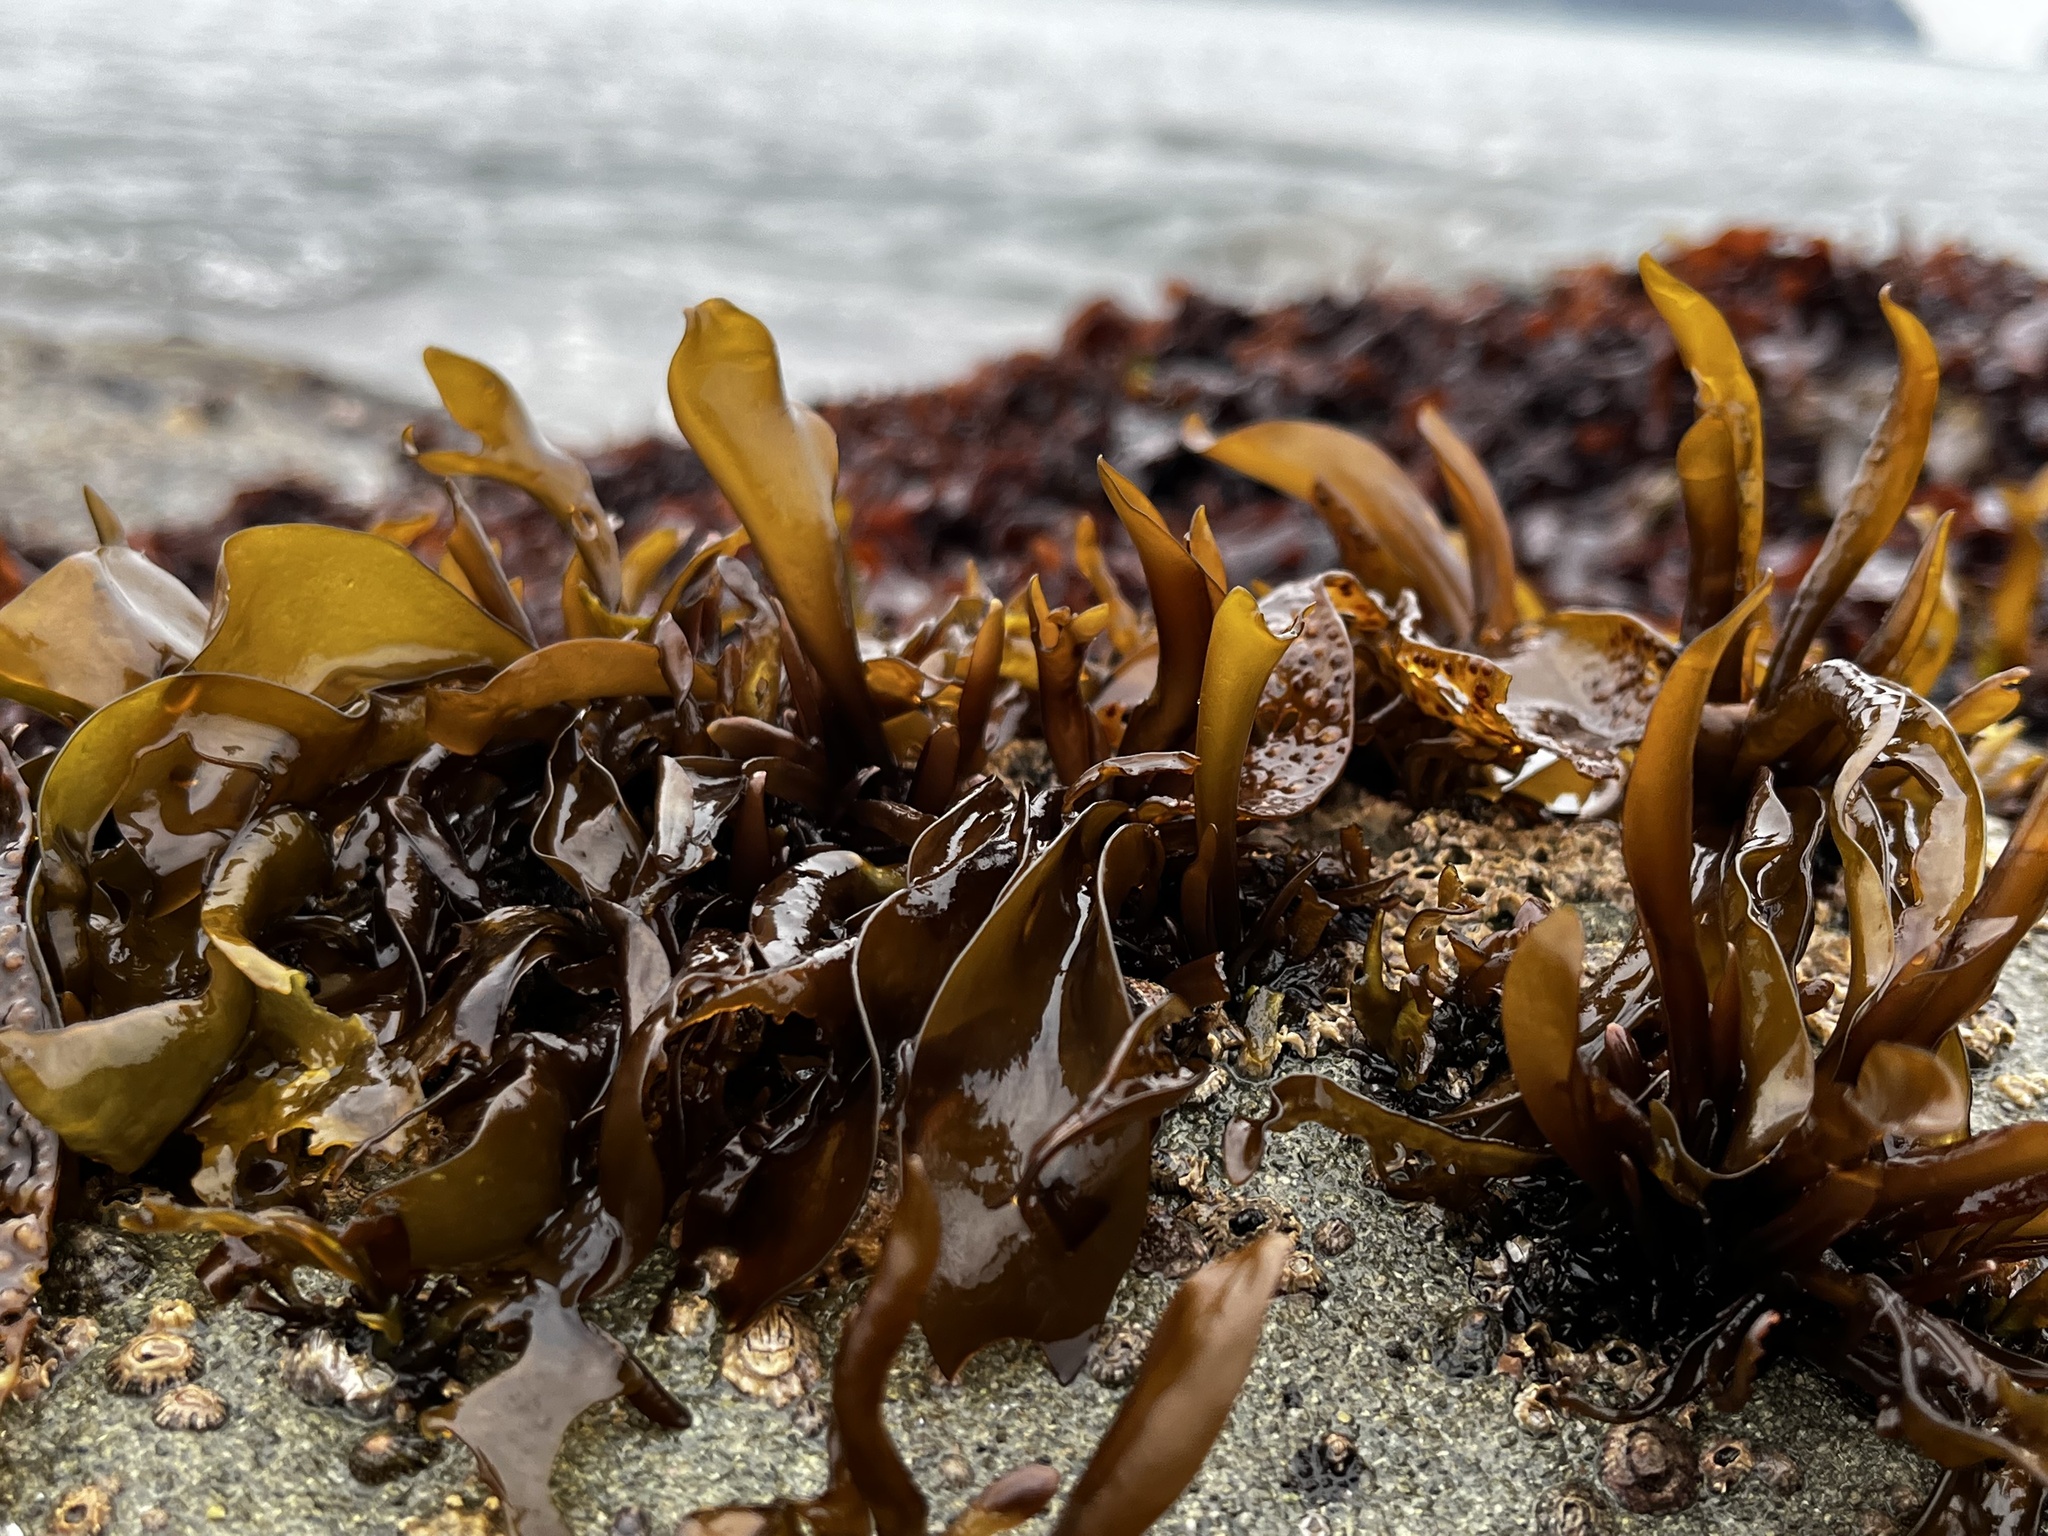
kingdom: Plantae
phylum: Rhodophyta
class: Florideophyceae
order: Gigartinales
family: Gigartinaceae
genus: Mazzaella
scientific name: Mazzaella laminarioides
